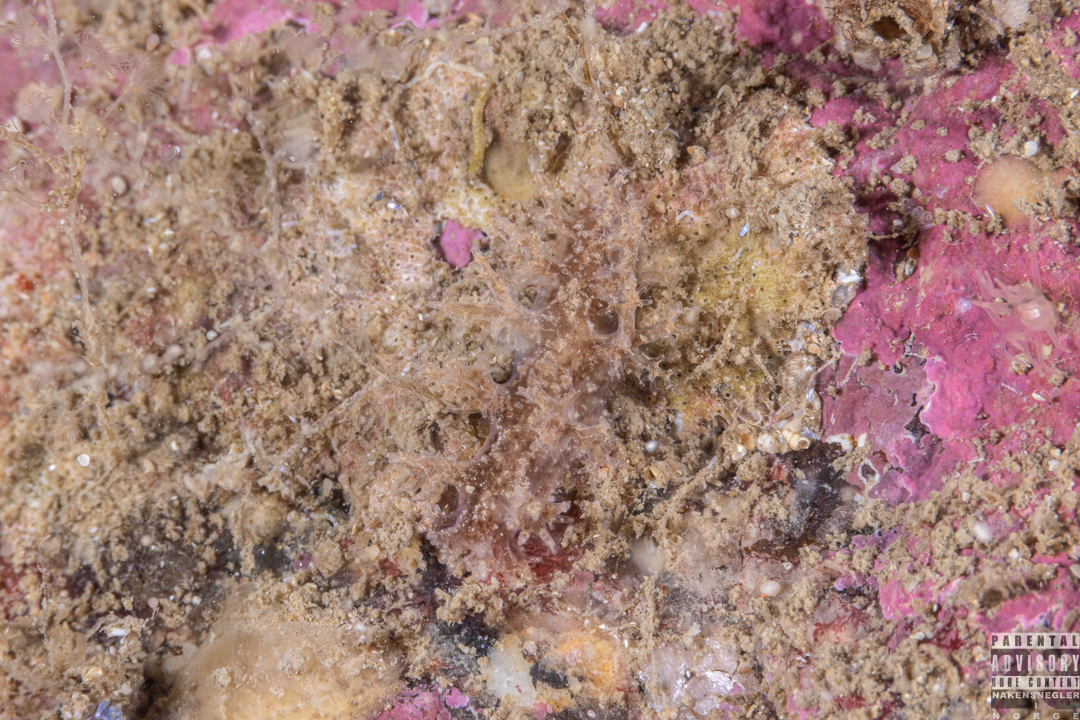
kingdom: Animalia
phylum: Mollusca
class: Gastropoda
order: Nudibranchia
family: Dendronotidae
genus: Dendronotus
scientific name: Dendronotus frondosus
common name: Bushy-backed nudibranch
